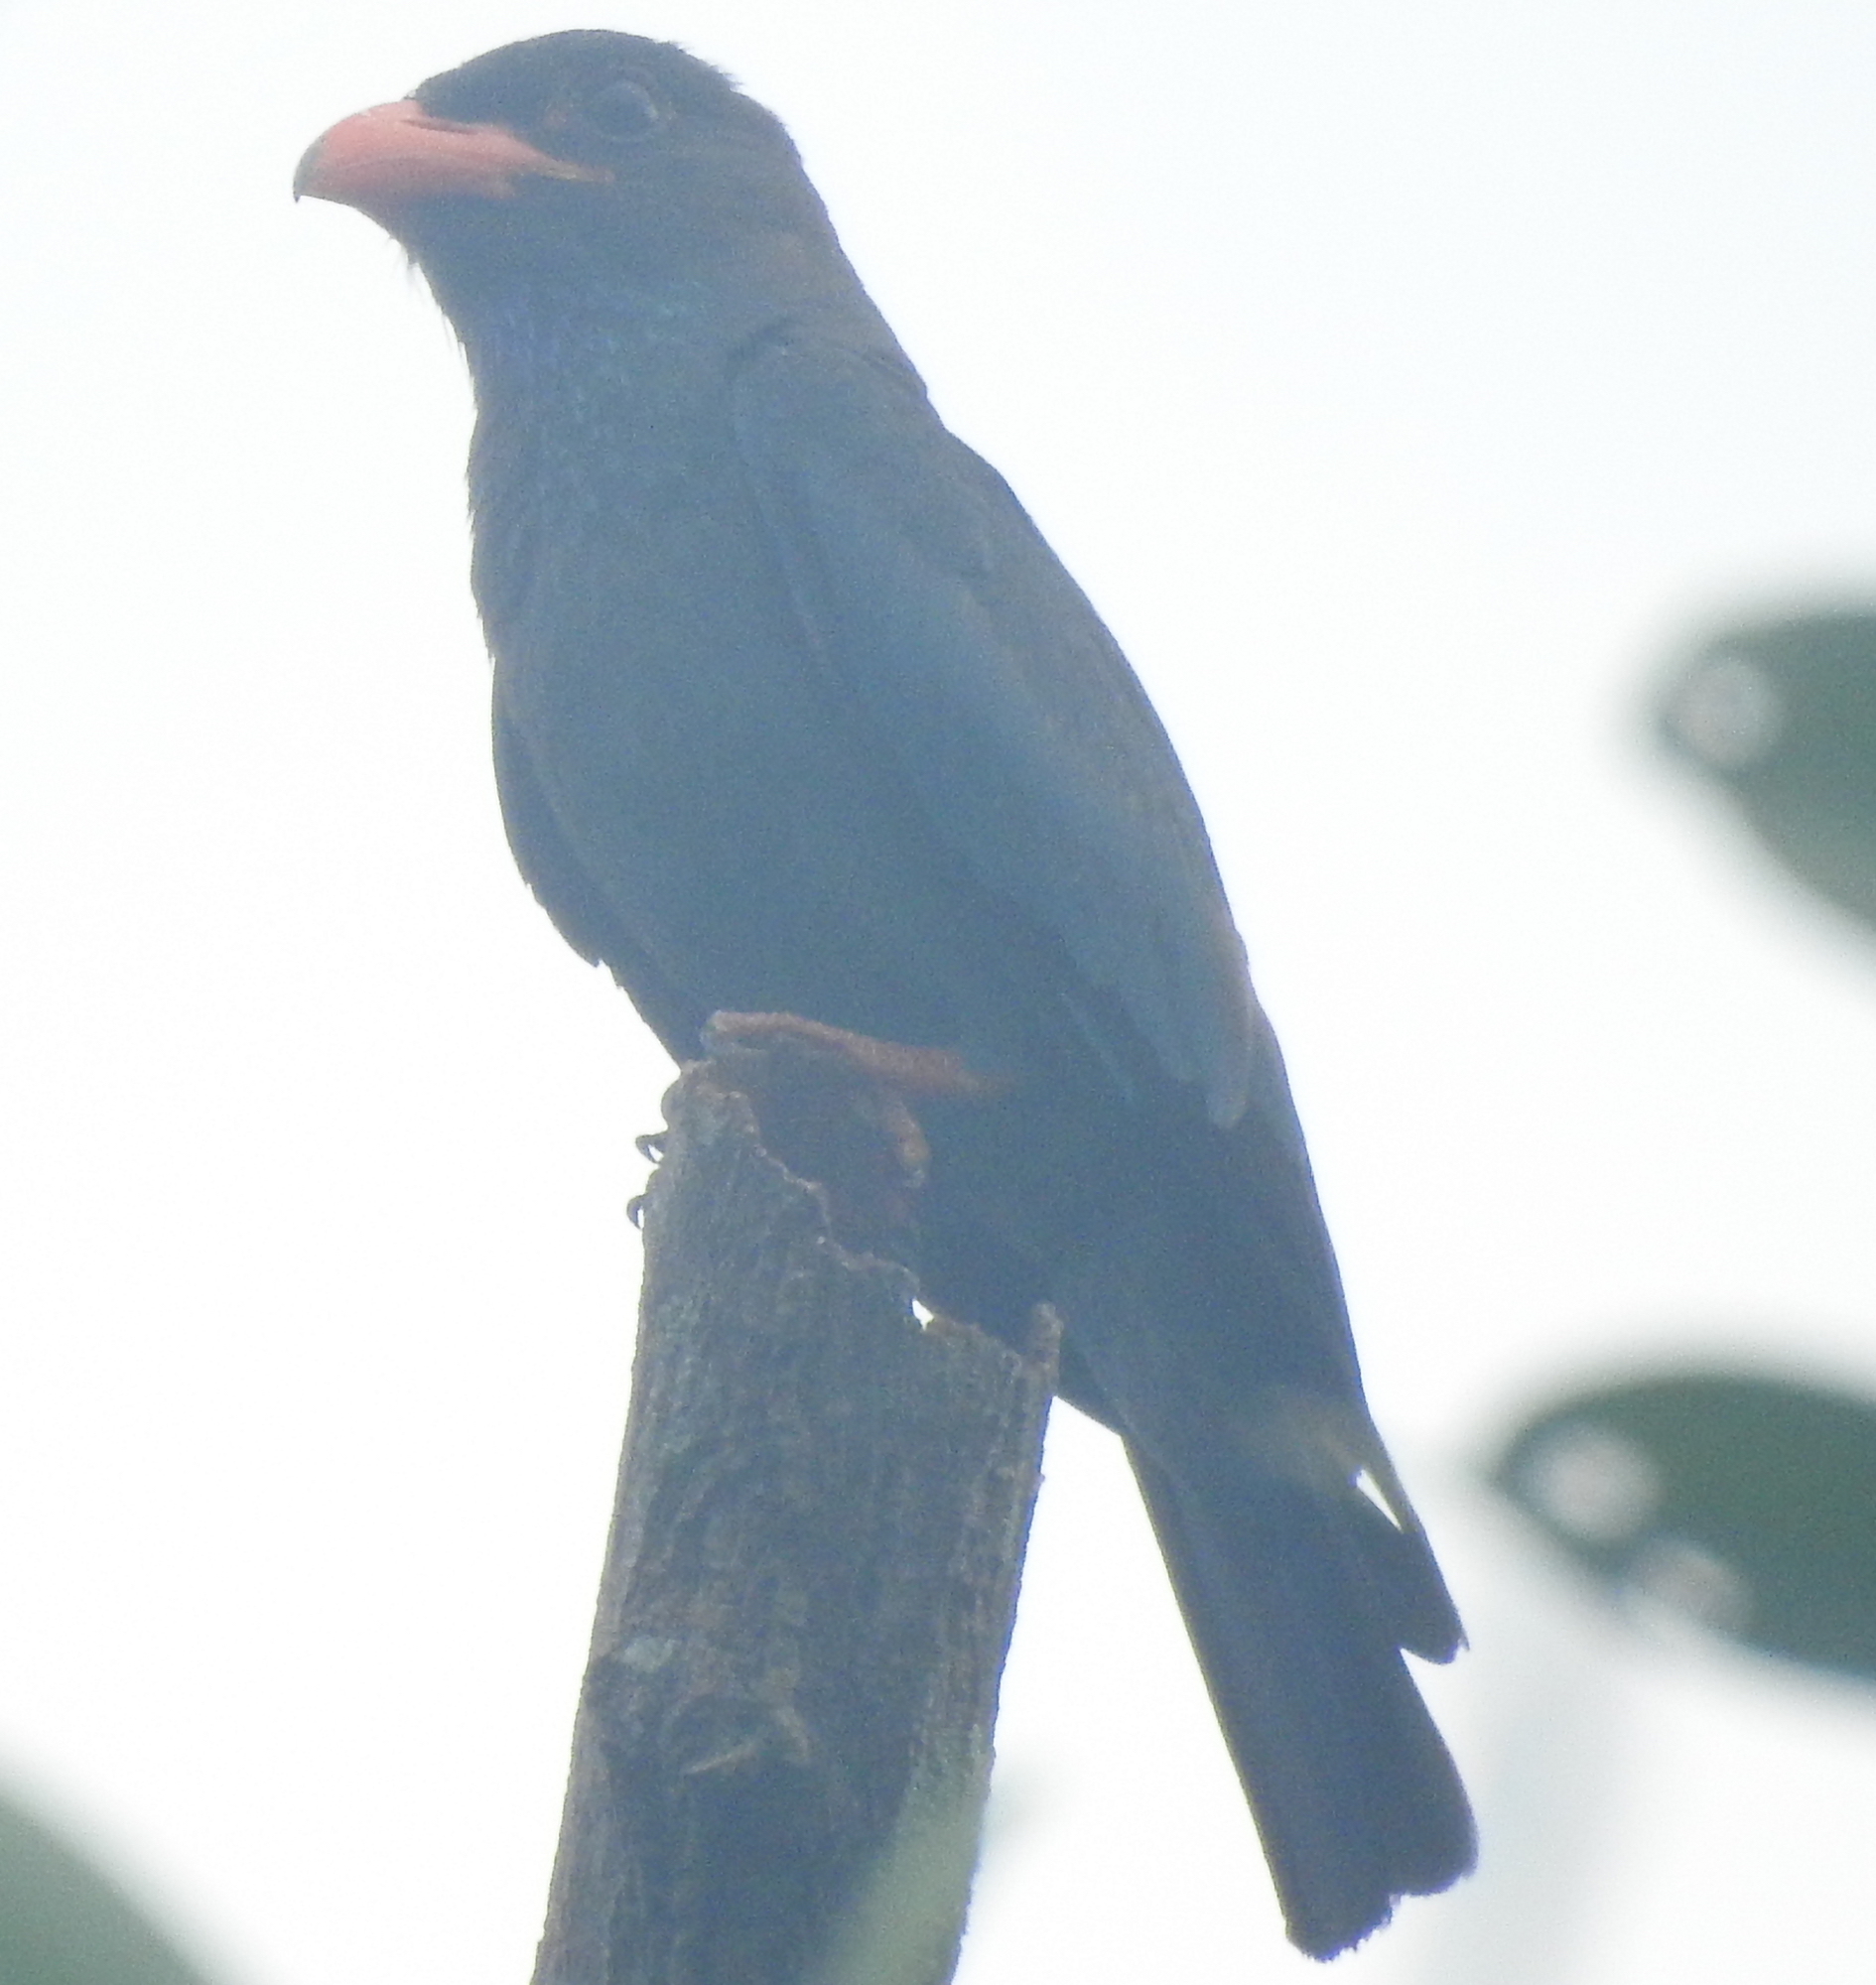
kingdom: Animalia
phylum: Chordata
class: Aves
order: Coraciiformes
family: Coraciidae
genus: Eurystomus
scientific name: Eurystomus orientalis
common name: Oriental dollarbird
